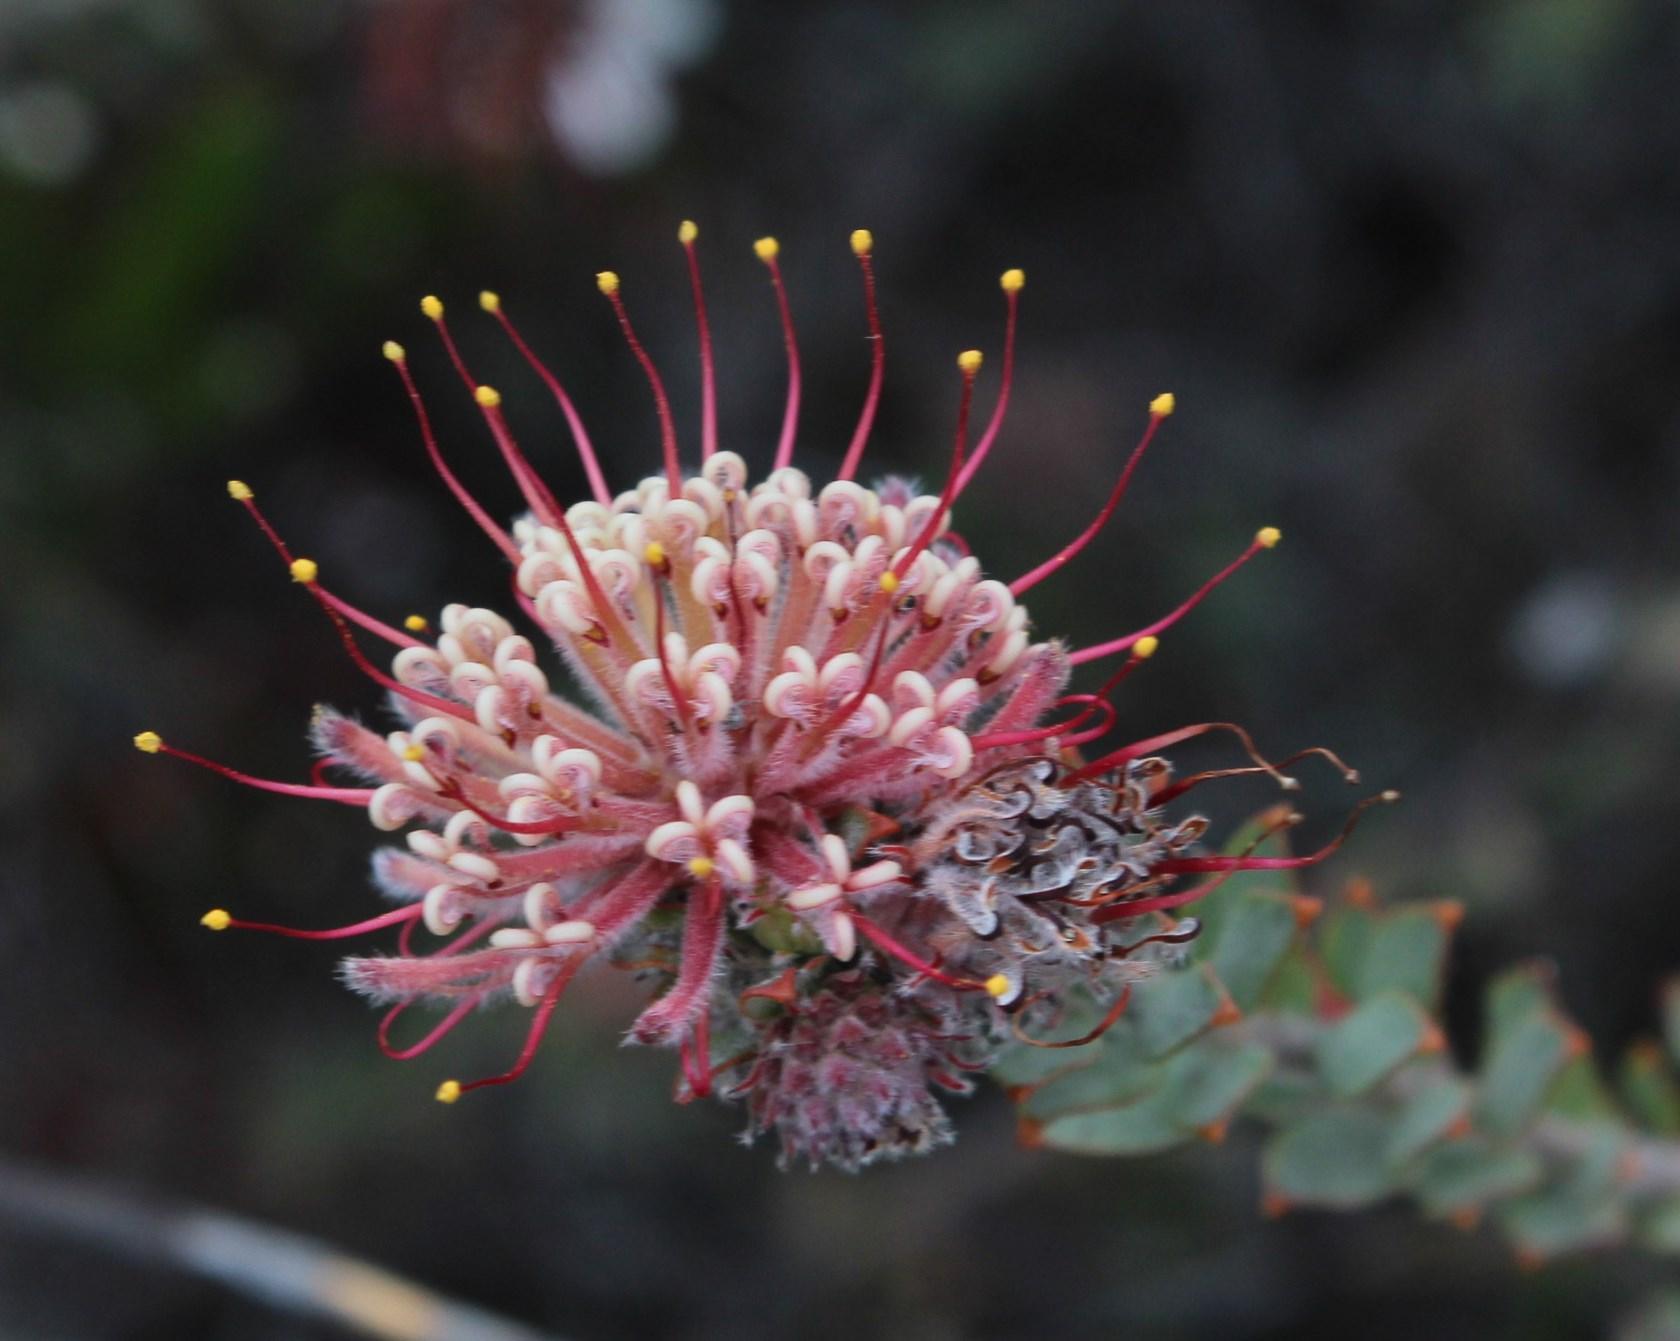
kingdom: Plantae
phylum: Tracheophyta
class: Magnoliopsida
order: Proteales
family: Proteaceae
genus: Leucospermum
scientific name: Leucospermum calligerum
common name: Arid pincushion
